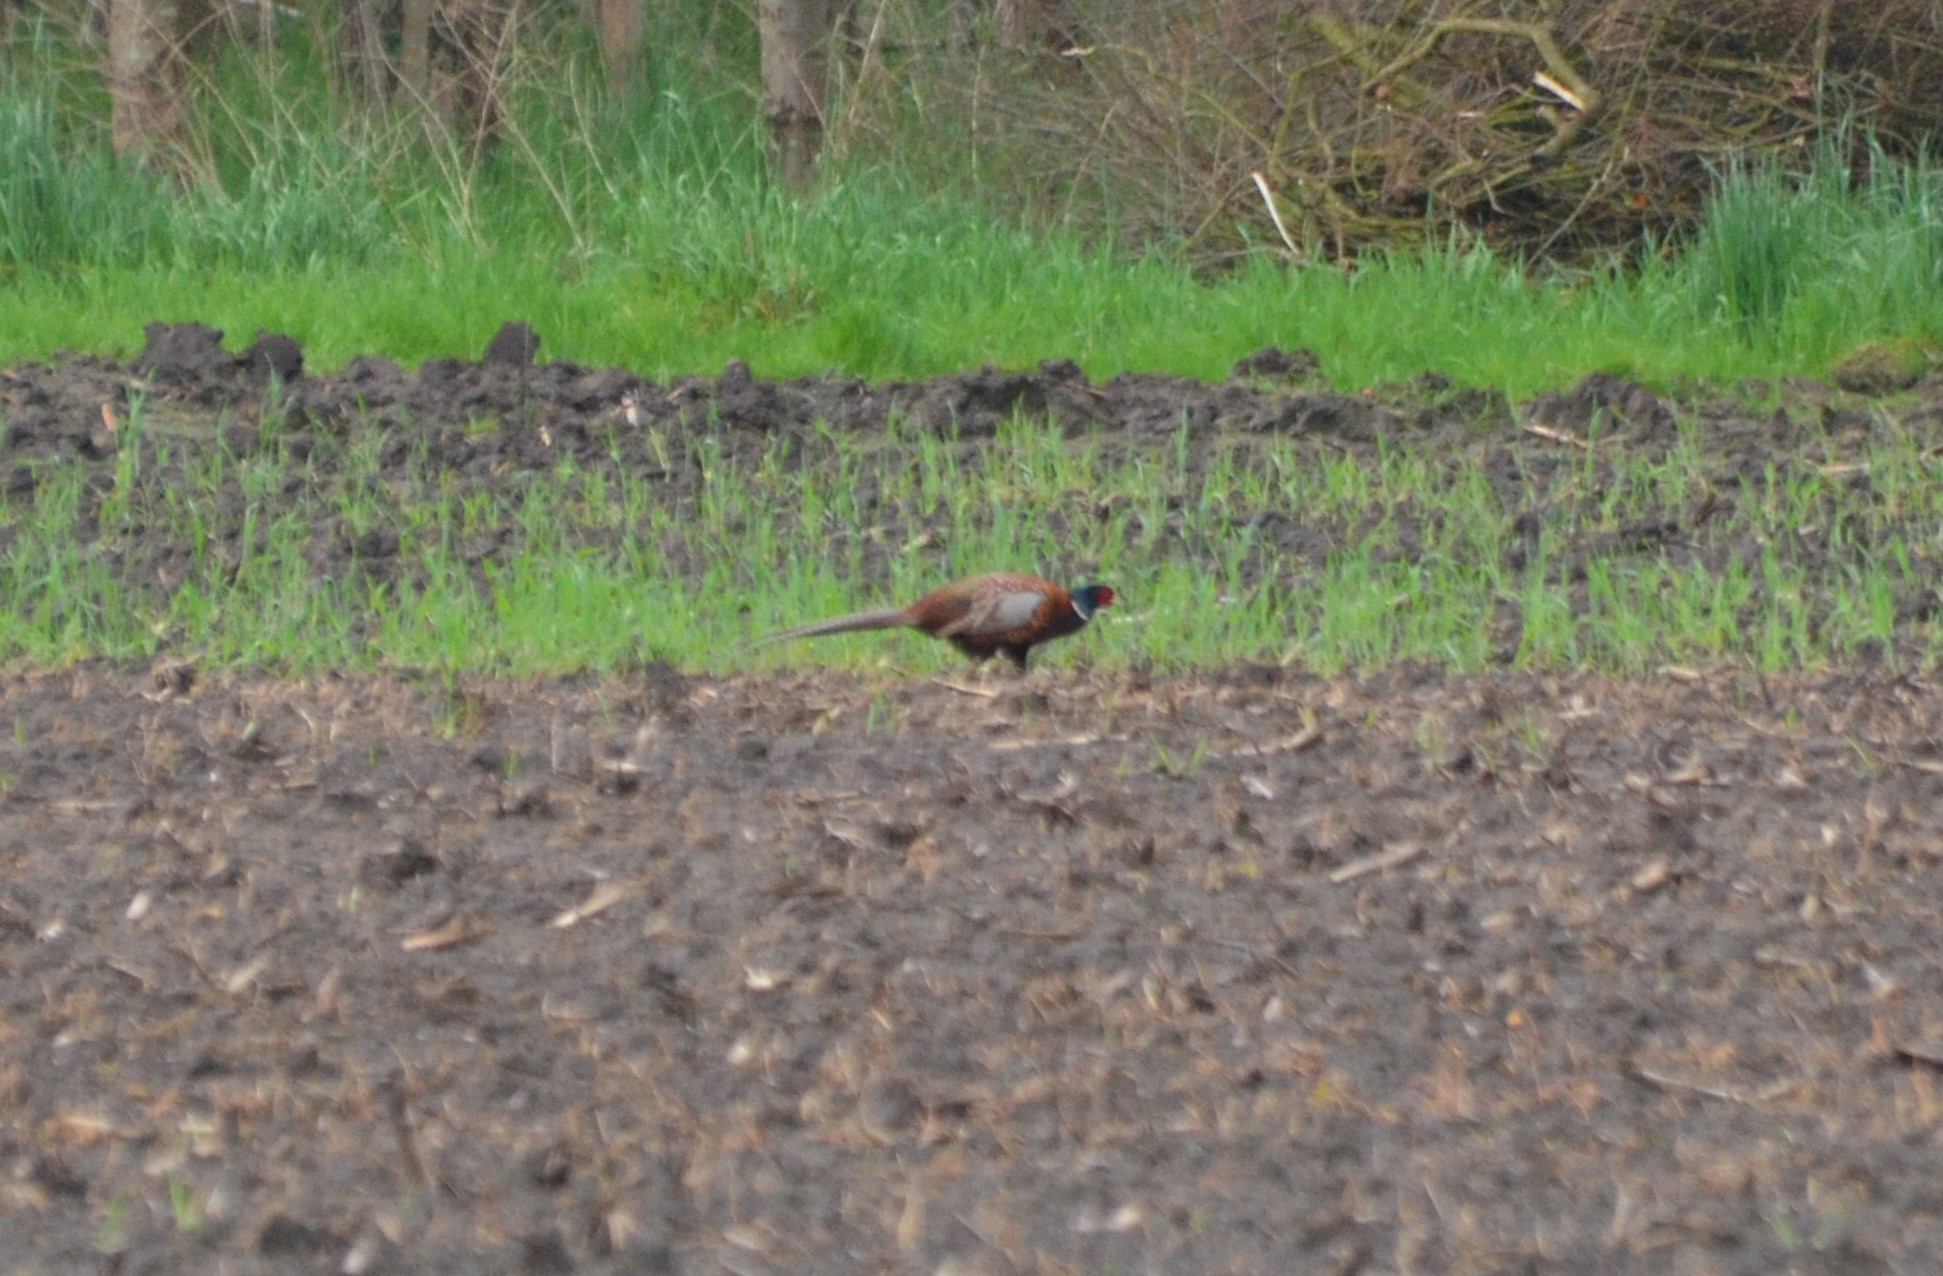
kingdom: Animalia
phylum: Chordata
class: Aves
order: Galliformes
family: Phasianidae
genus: Phasianus
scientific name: Phasianus colchicus
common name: Common pheasant
